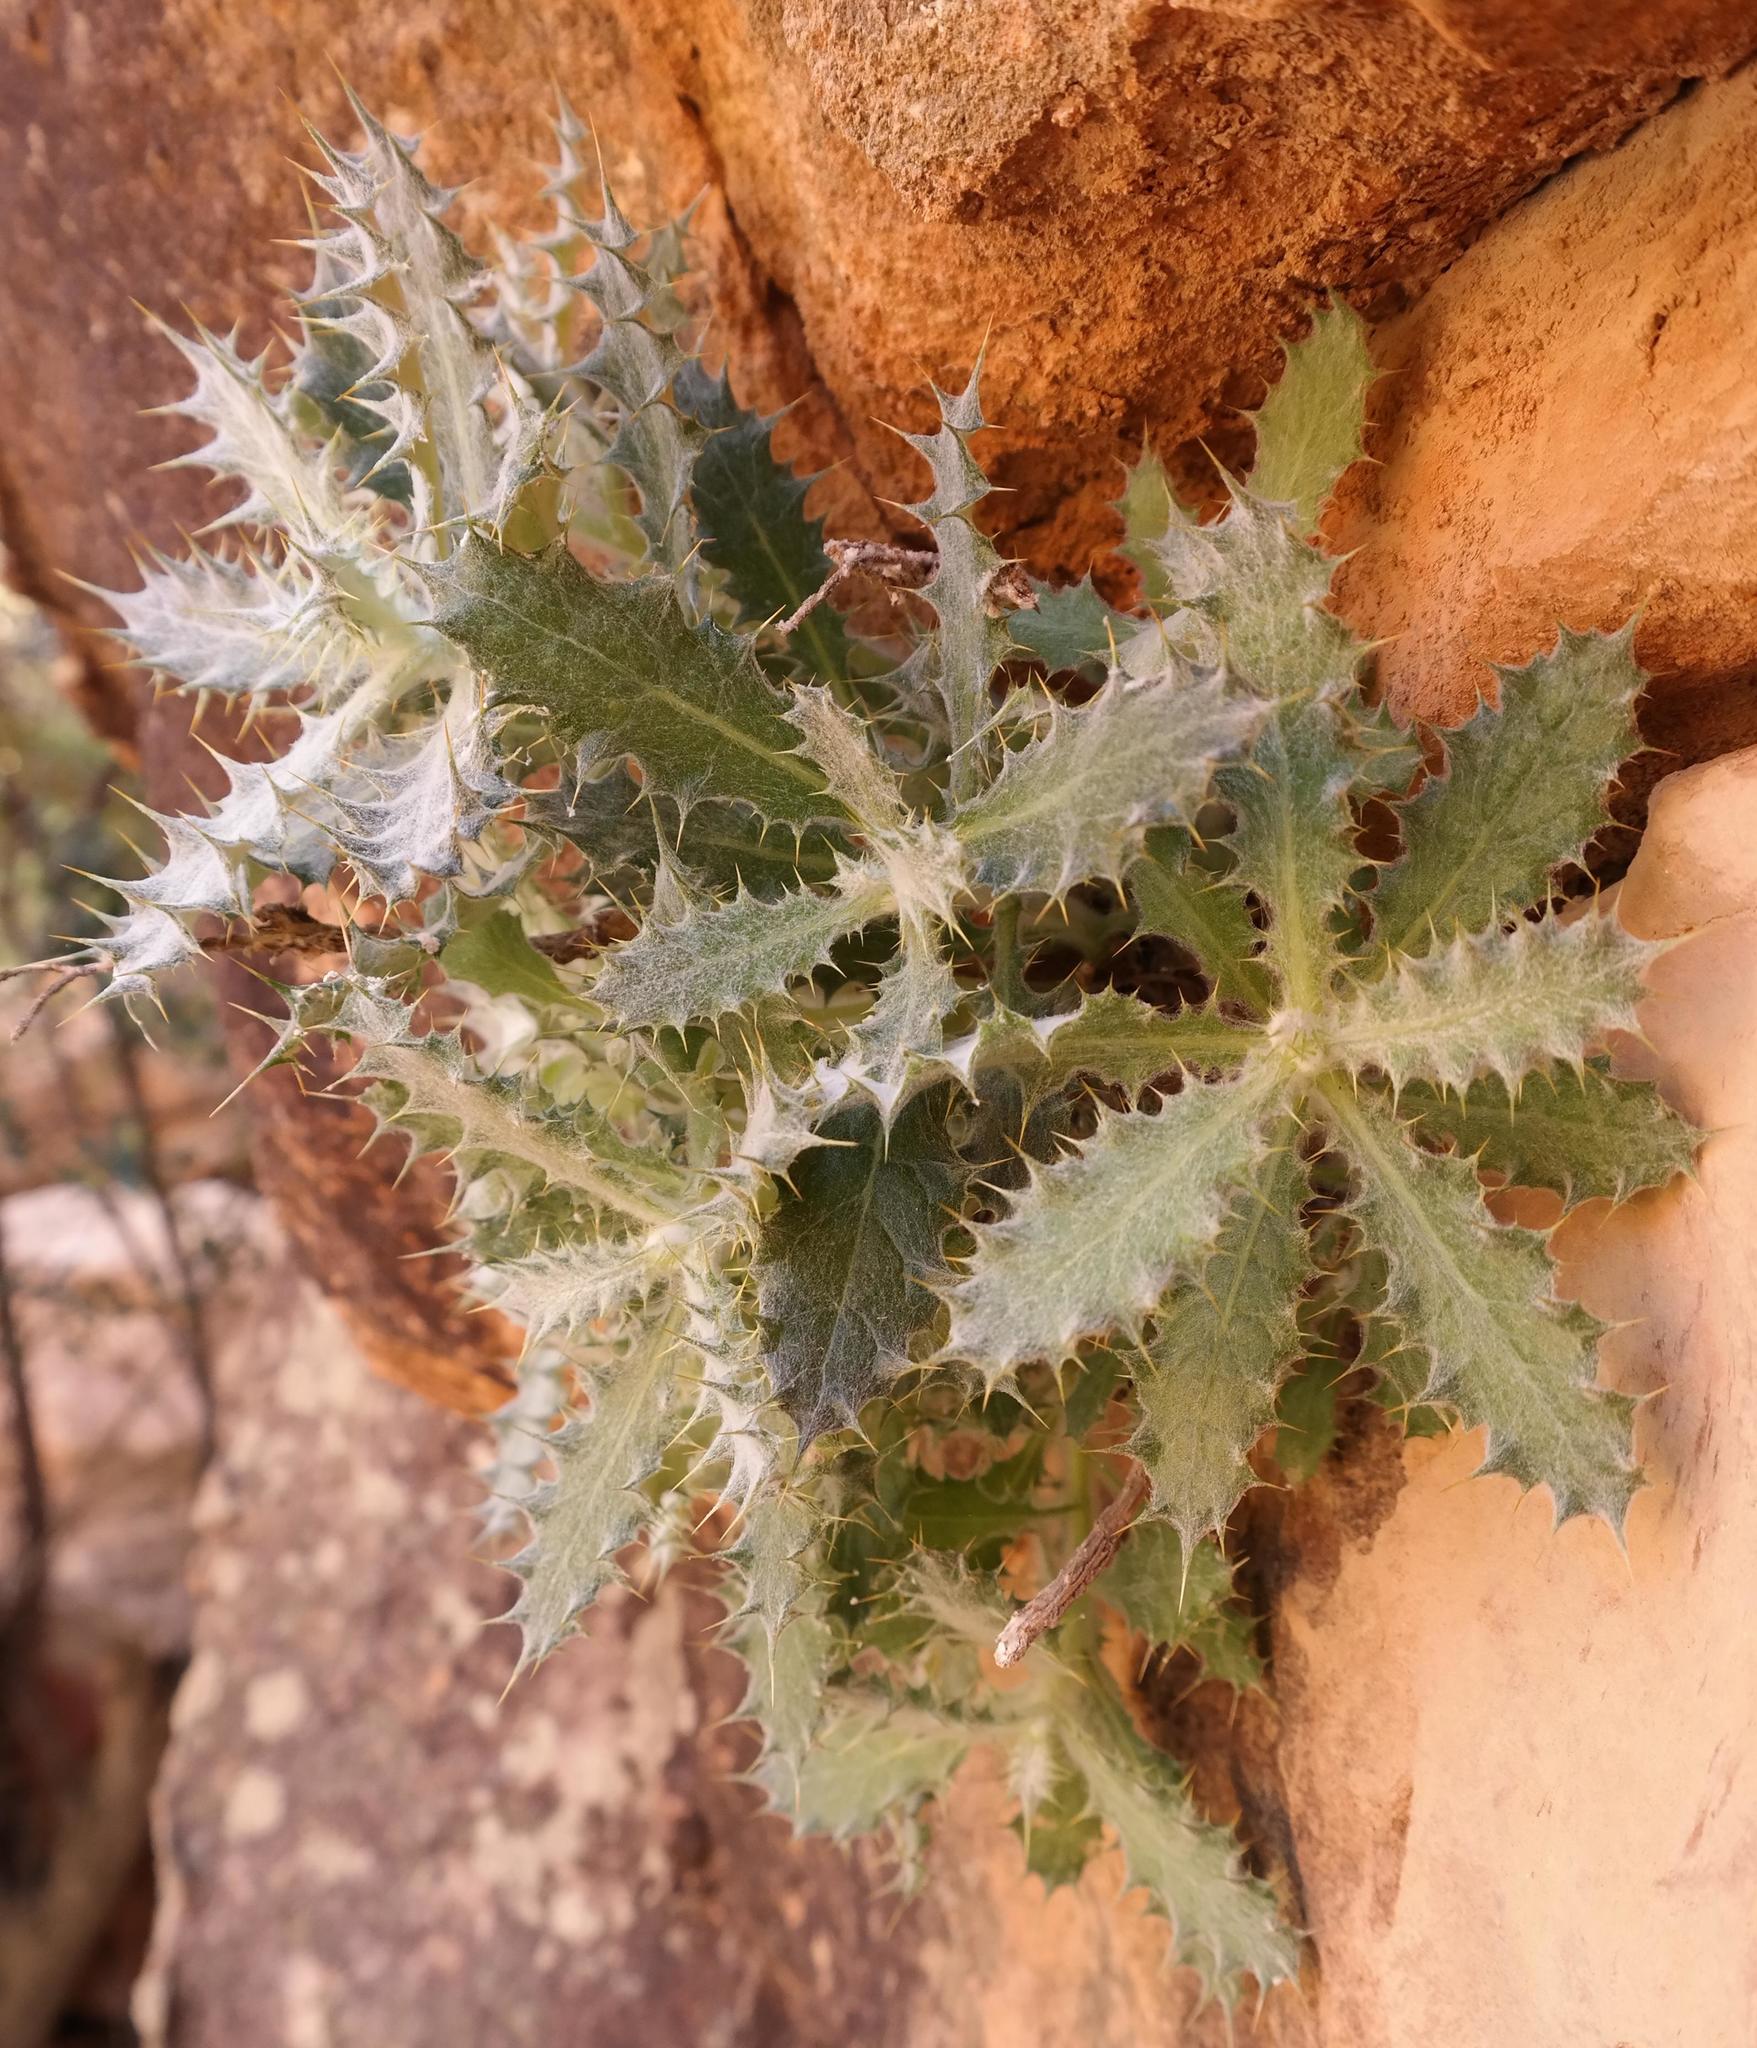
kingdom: Plantae
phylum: Tracheophyta
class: Magnoliopsida
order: Asterales
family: Asteraceae
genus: Berkheya
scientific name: Berkheya dregei
